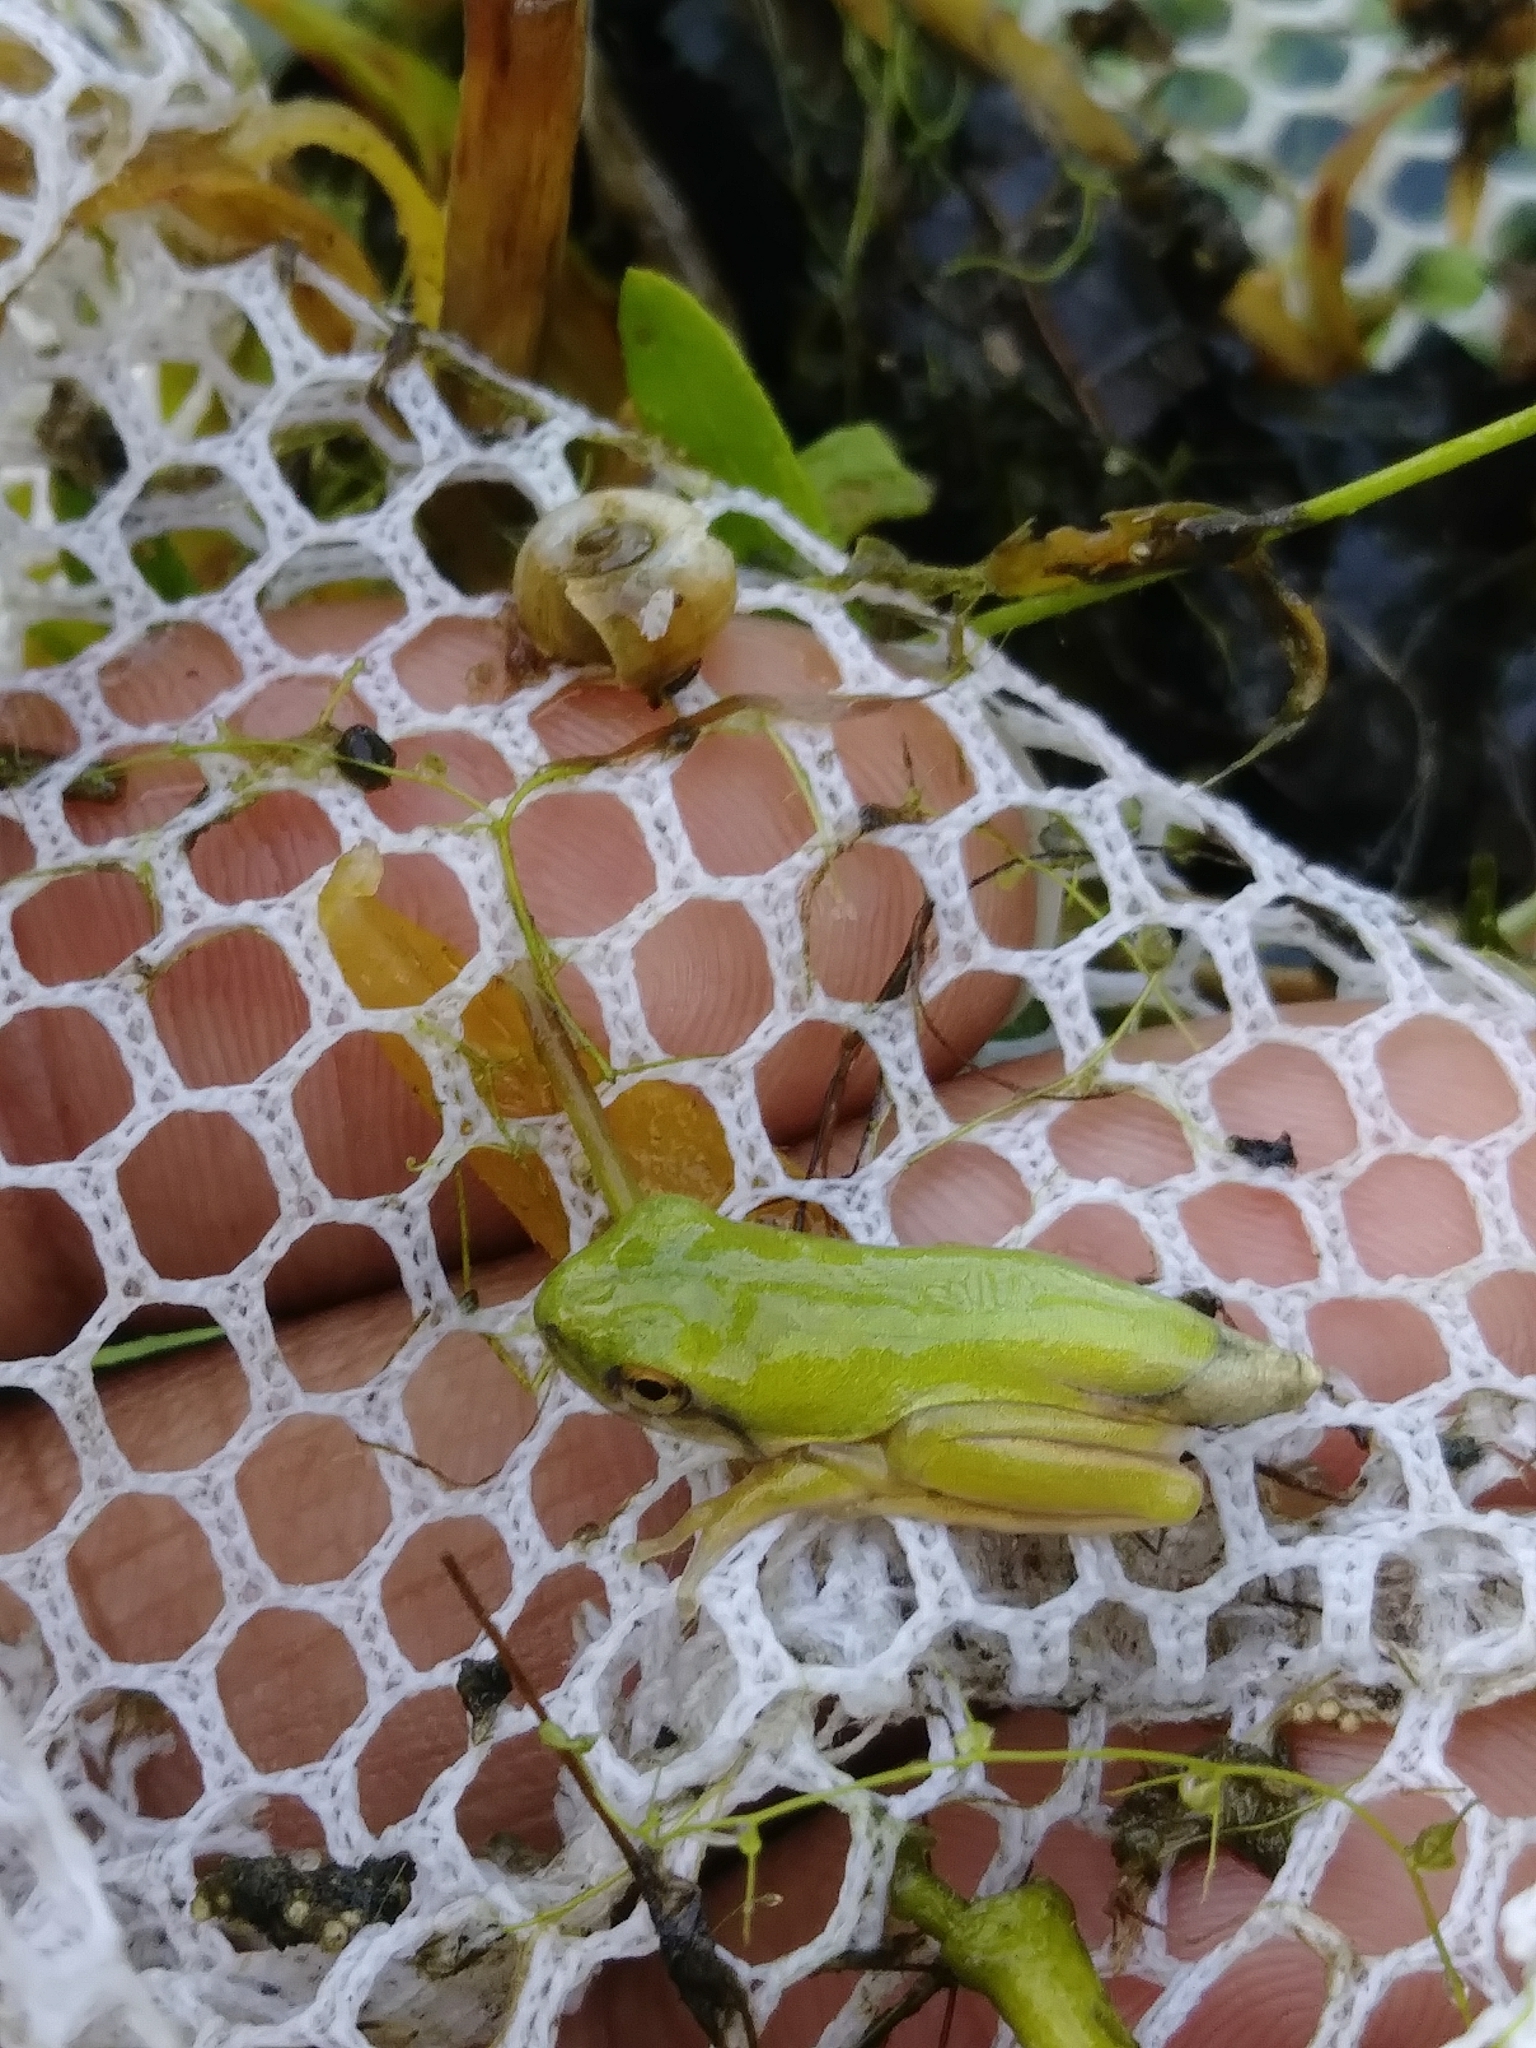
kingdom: Animalia
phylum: Chordata
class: Amphibia
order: Anura
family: Hylidae
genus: Dryophytes
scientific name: Dryophytes cinereus
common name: Green treefrog
